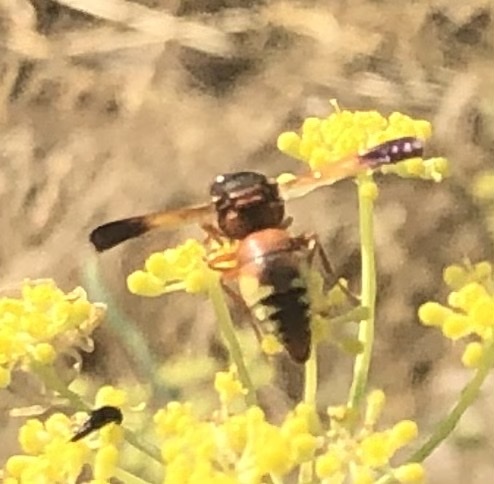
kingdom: Animalia
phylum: Arthropoda
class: Insecta
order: Hymenoptera
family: Eumenidae
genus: Rhynchium
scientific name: Rhynchium oculatum
